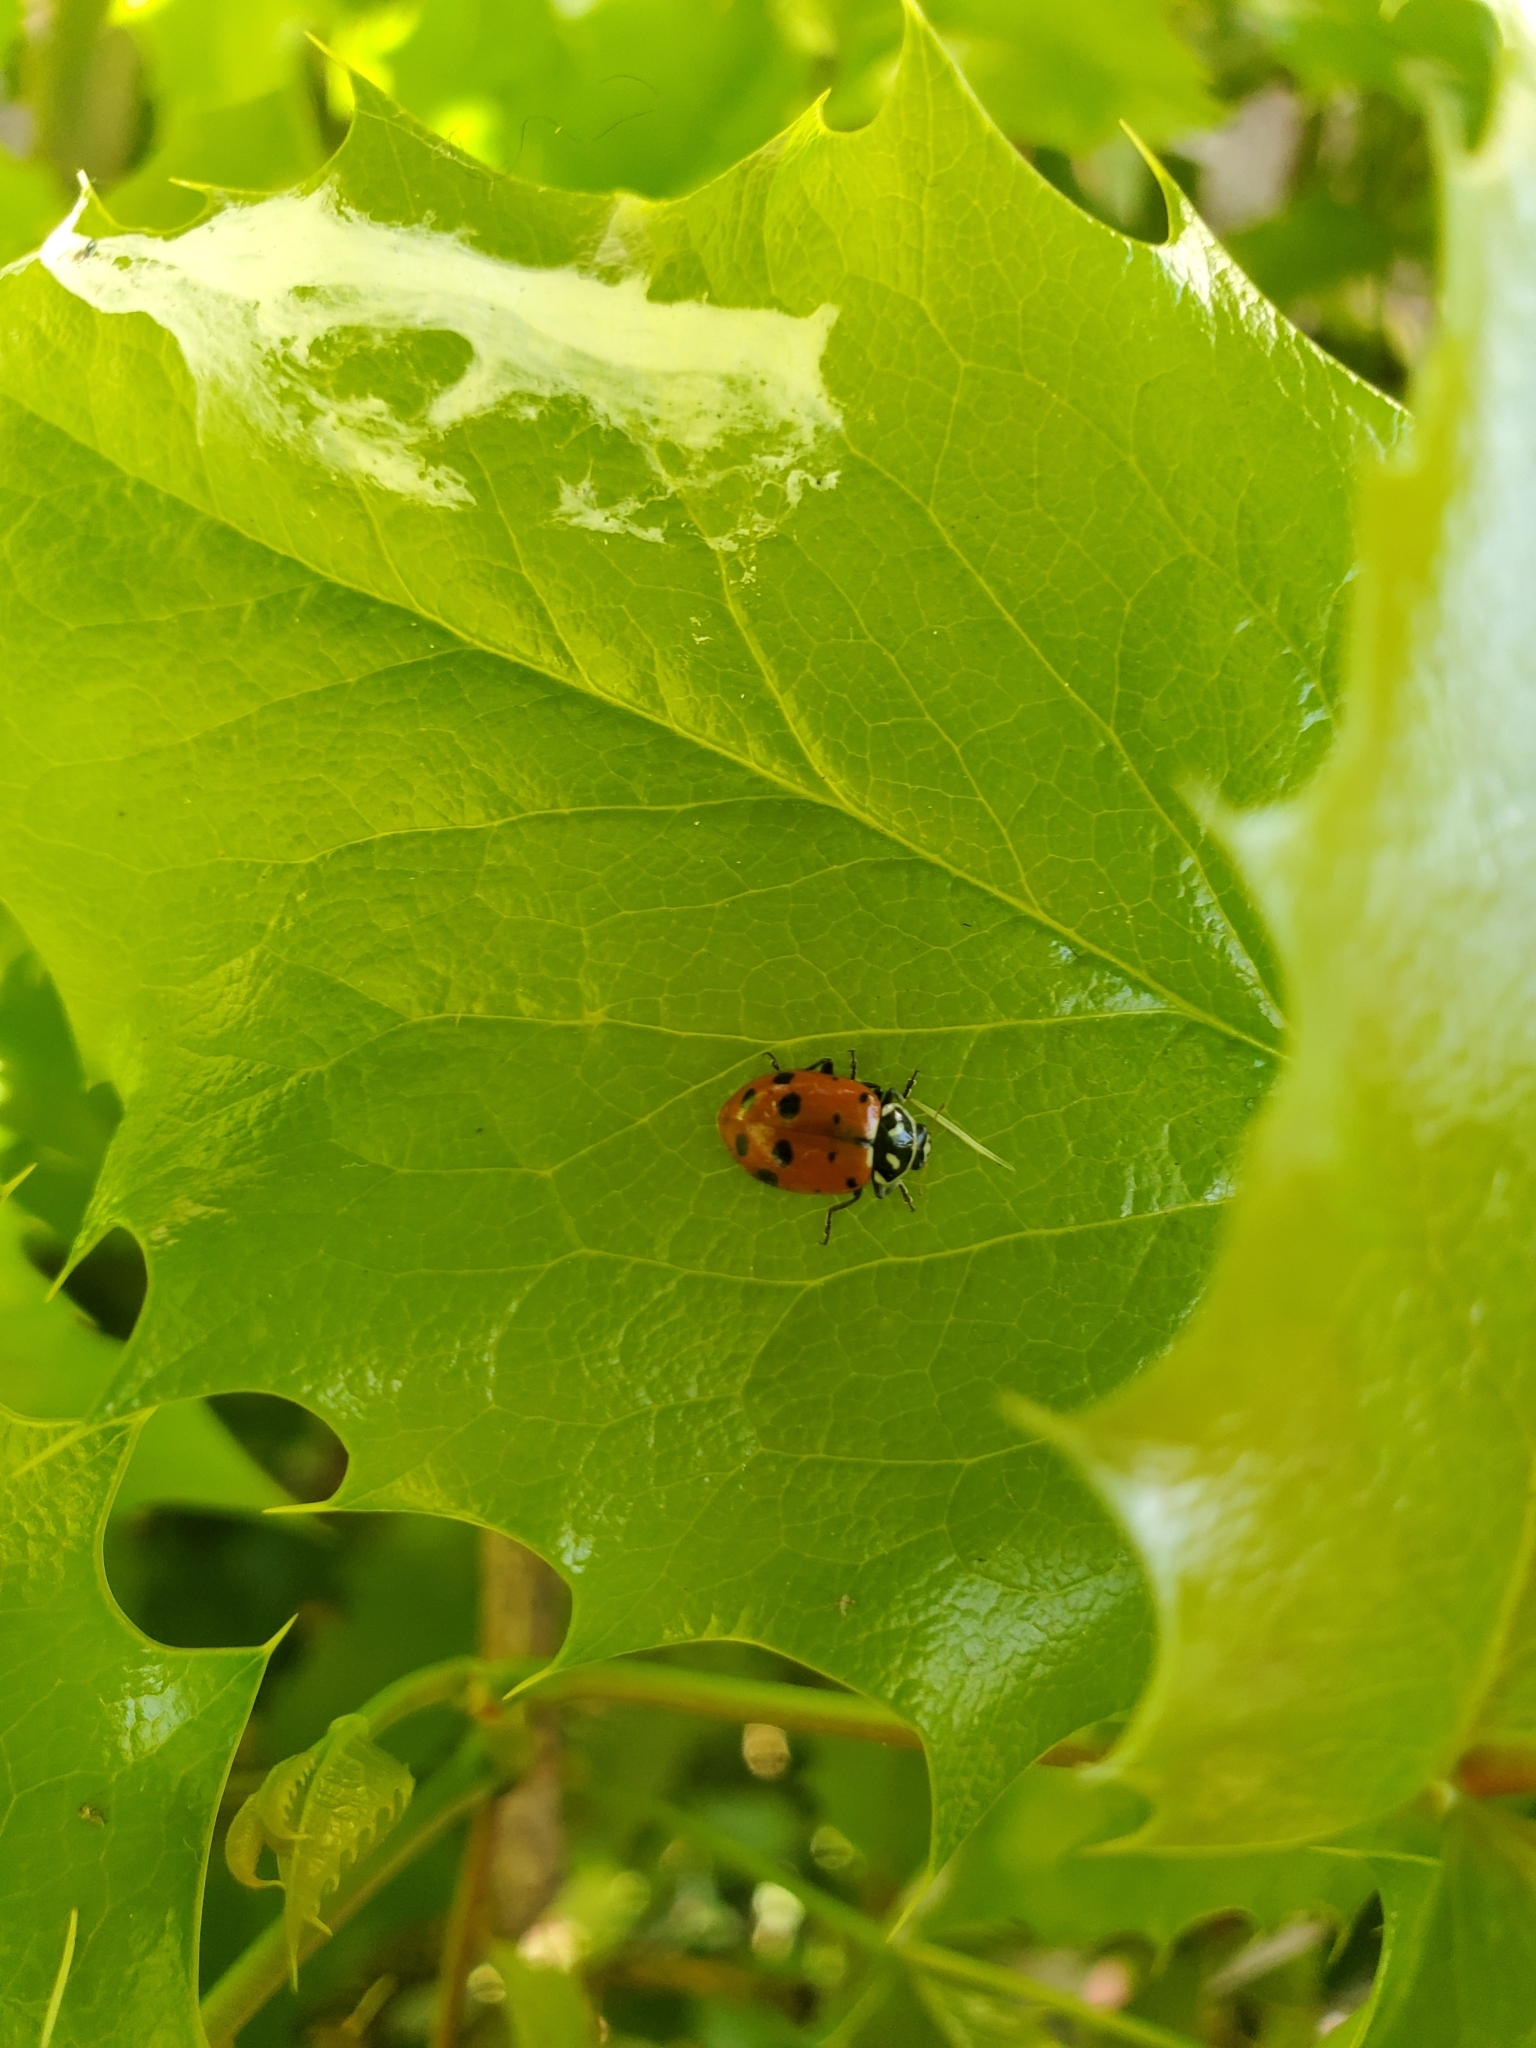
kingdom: Animalia
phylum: Arthropoda
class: Insecta
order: Coleoptera
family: Coccinellidae
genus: Hippodamia
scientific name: Hippodamia convergens
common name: Convergent lady beetle
